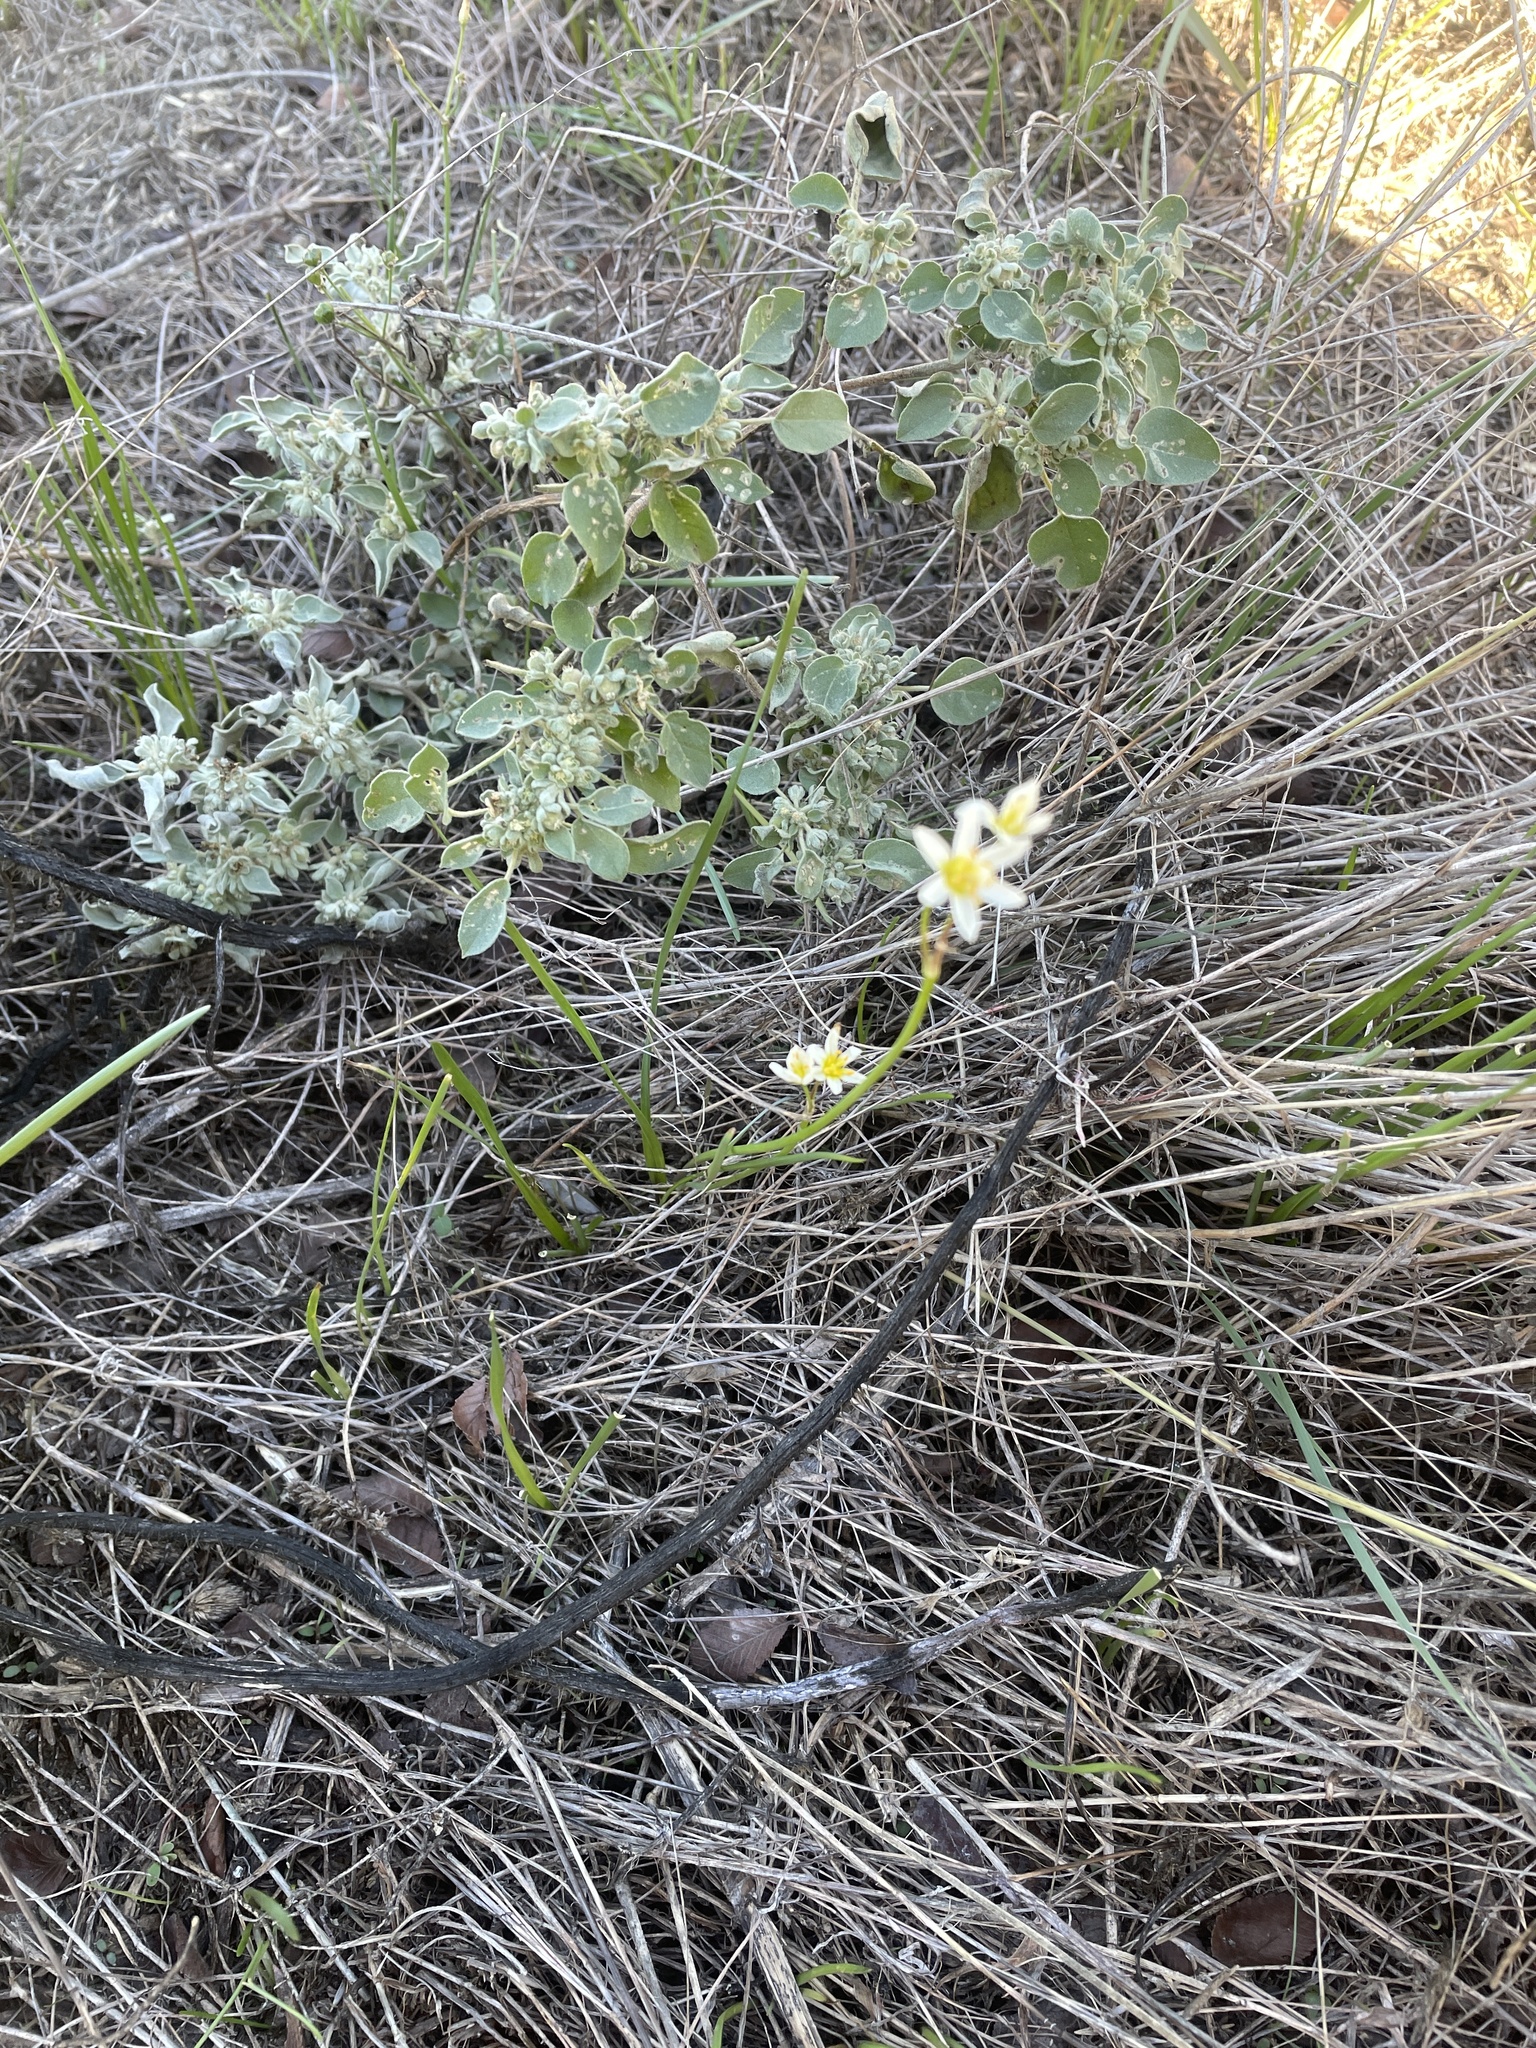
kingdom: Plantae
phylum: Tracheophyta
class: Liliopsida
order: Asparagales
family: Amaryllidaceae
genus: Nothoscordum
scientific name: Nothoscordum bivalve
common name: Crow-poison
